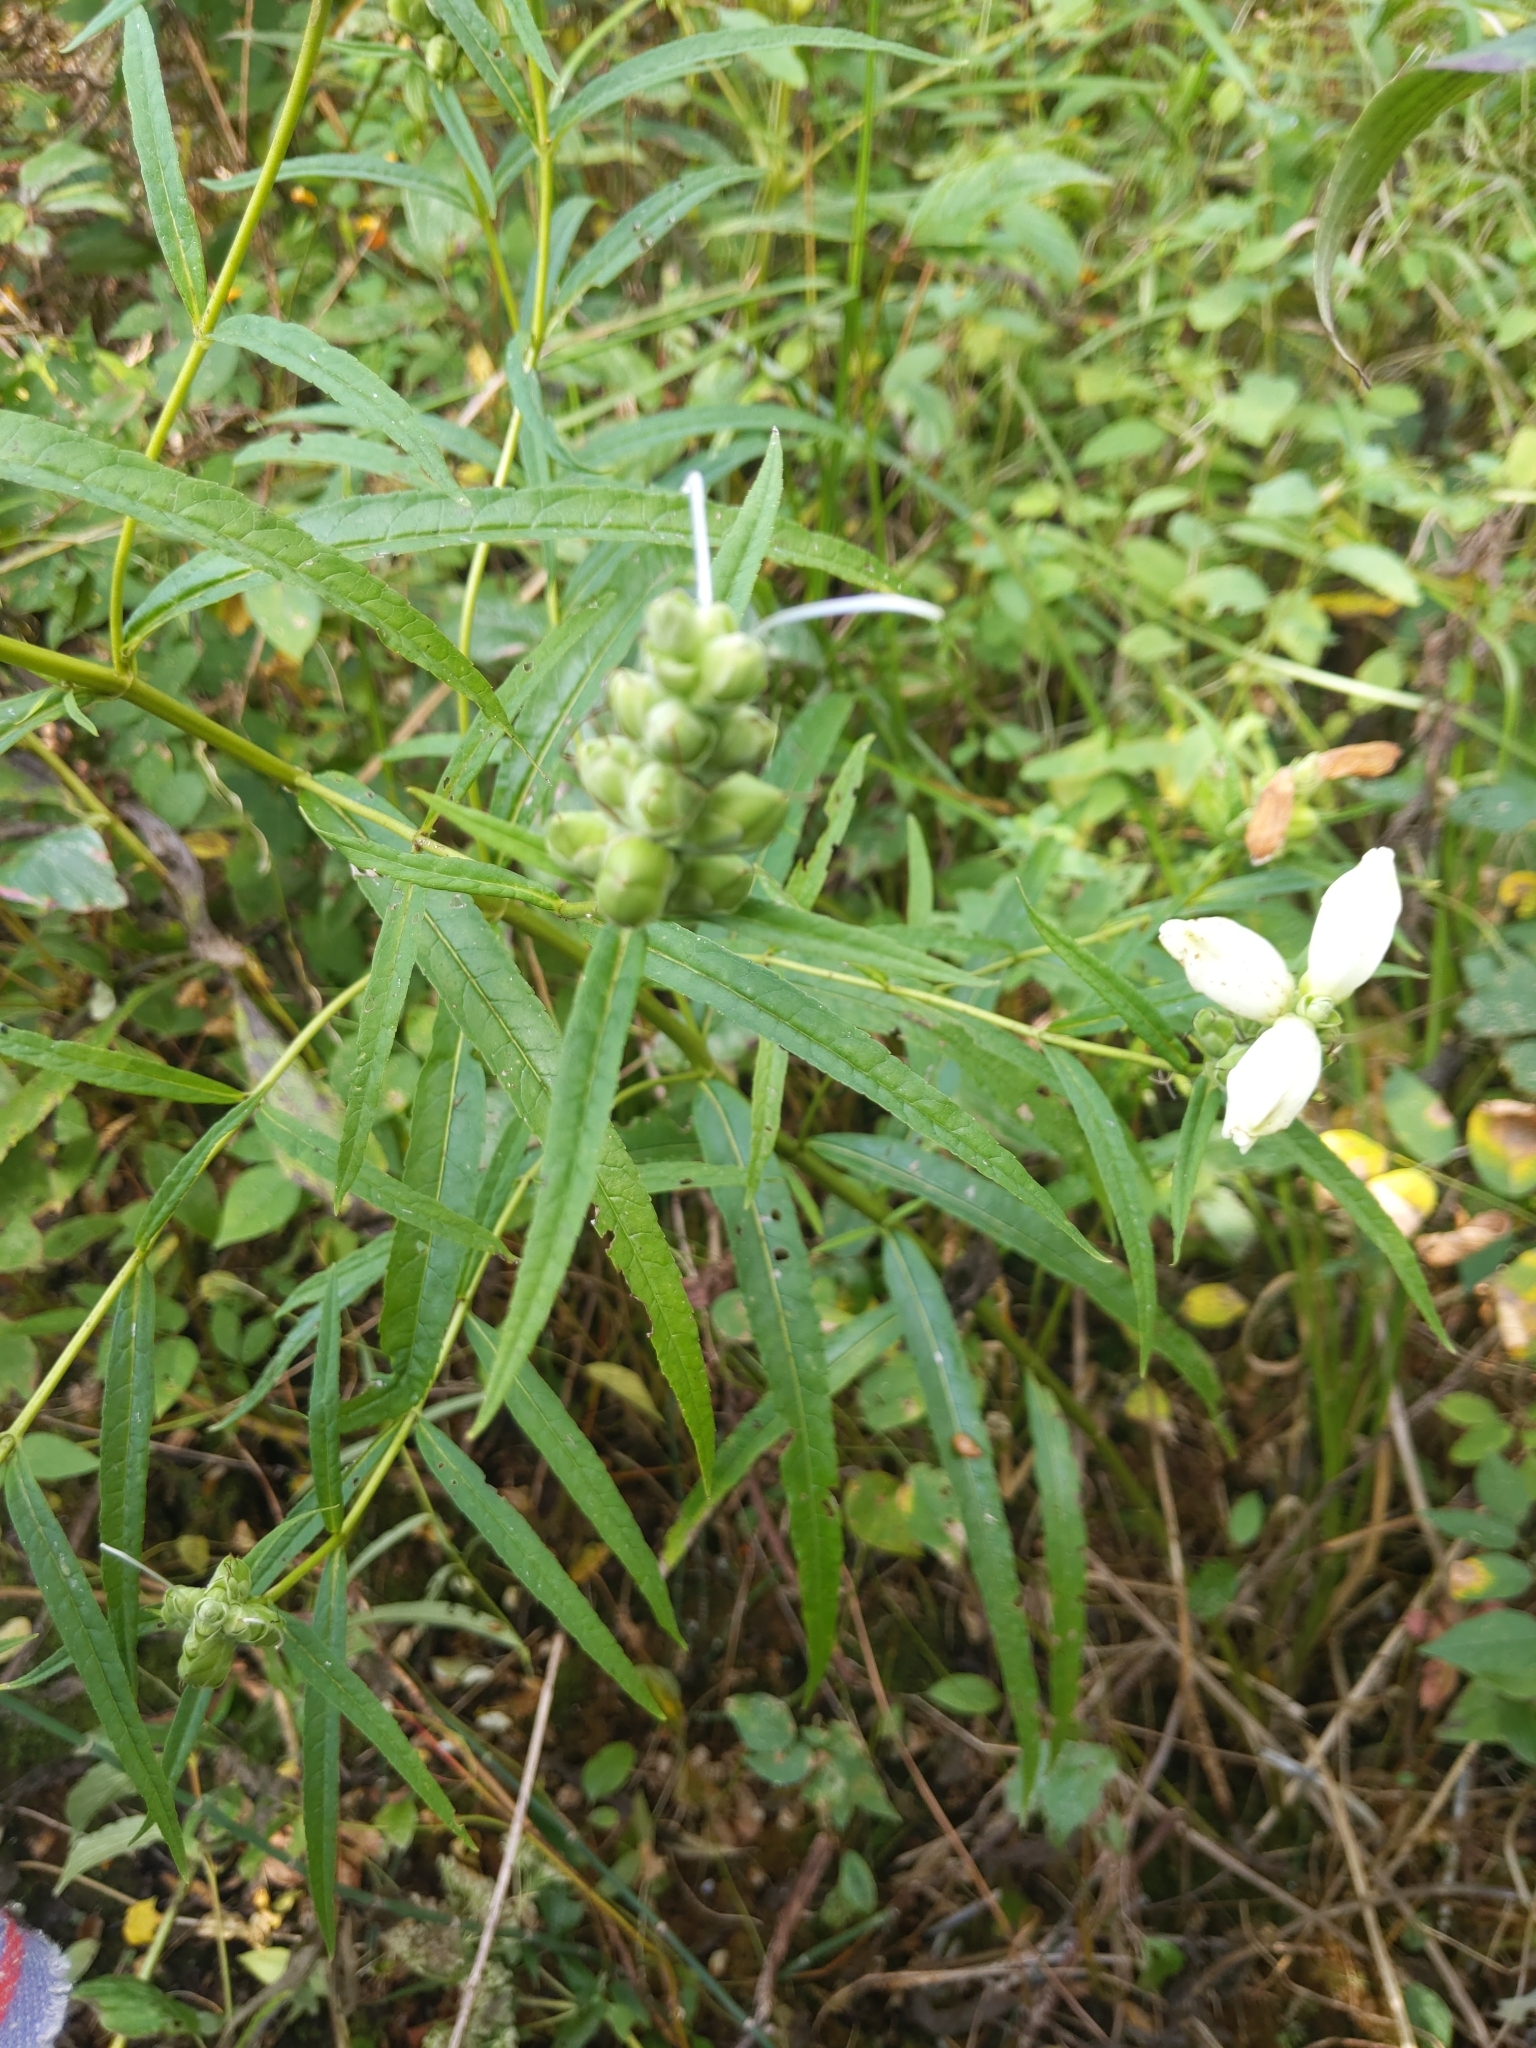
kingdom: Plantae
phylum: Tracheophyta
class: Magnoliopsida
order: Lamiales
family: Plantaginaceae
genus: Chelone
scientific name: Chelone glabra
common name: Snakehead
